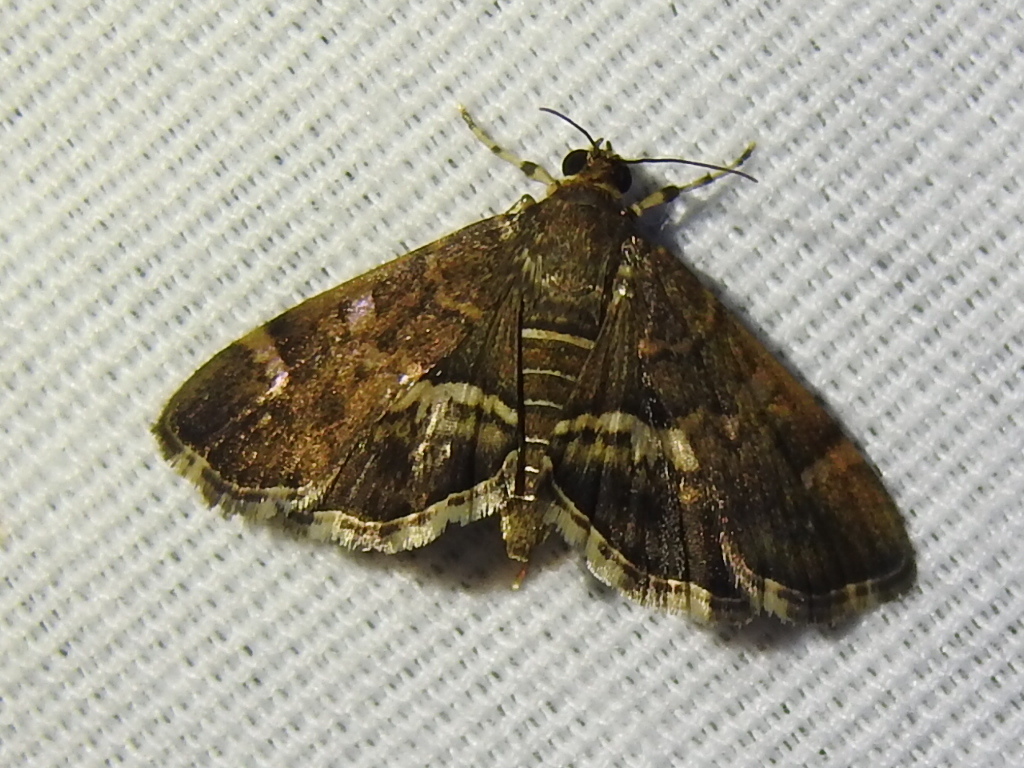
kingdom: Animalia
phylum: Arthropoda
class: Insecta
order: Lepidoptera
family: Crambidae
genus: Hymenia
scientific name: Hymenia perspectalis
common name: Spotted beet webworm
